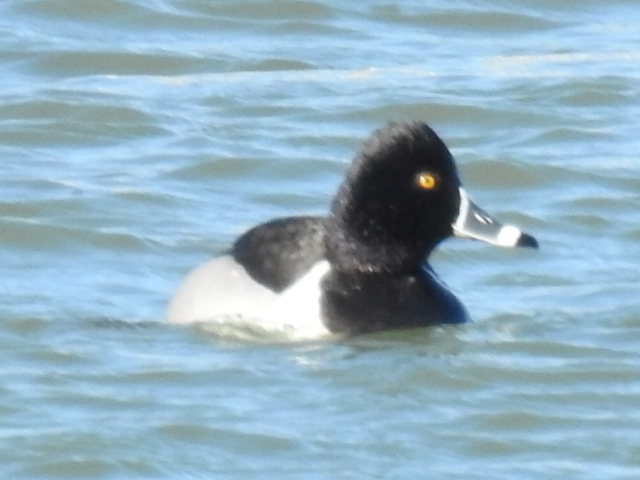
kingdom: Animalia
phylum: Chordata
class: Aves
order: Anseriformes
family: Anatidae
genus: Aythya
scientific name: Aythya collaris
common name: Ring-necked duck
